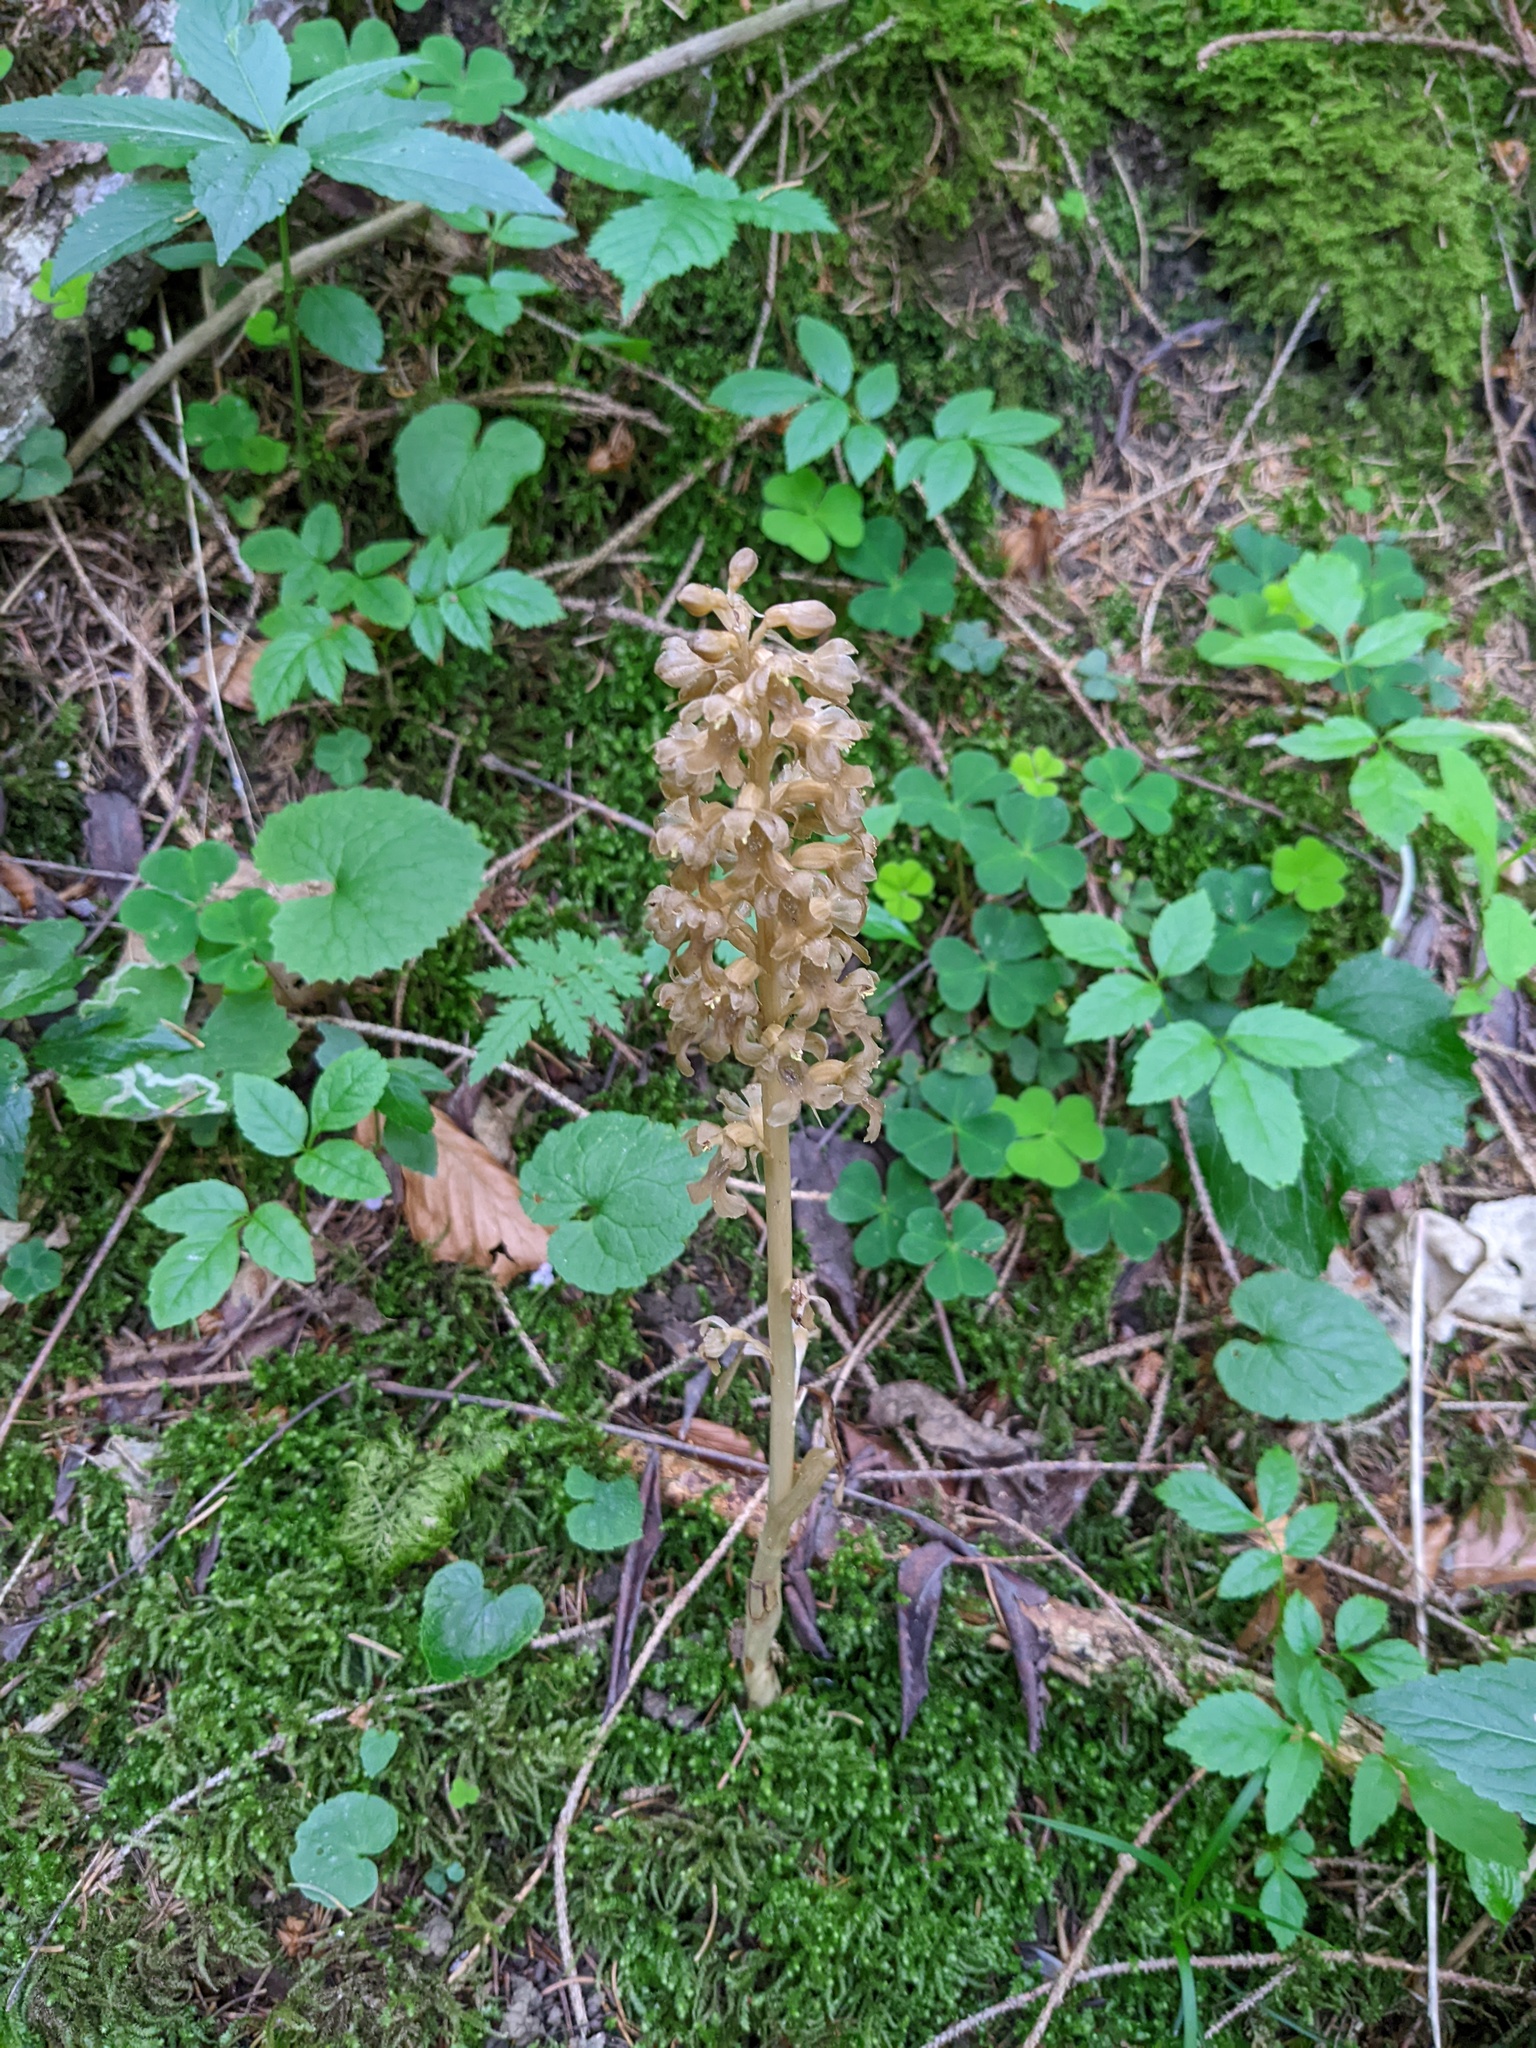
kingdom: Plantae
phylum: Tracheophyta
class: Liliopsida
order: Asparagales
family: Orchidaceae
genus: Neottia
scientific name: Neottia nidus-avis
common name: Bird's-nest orchid
